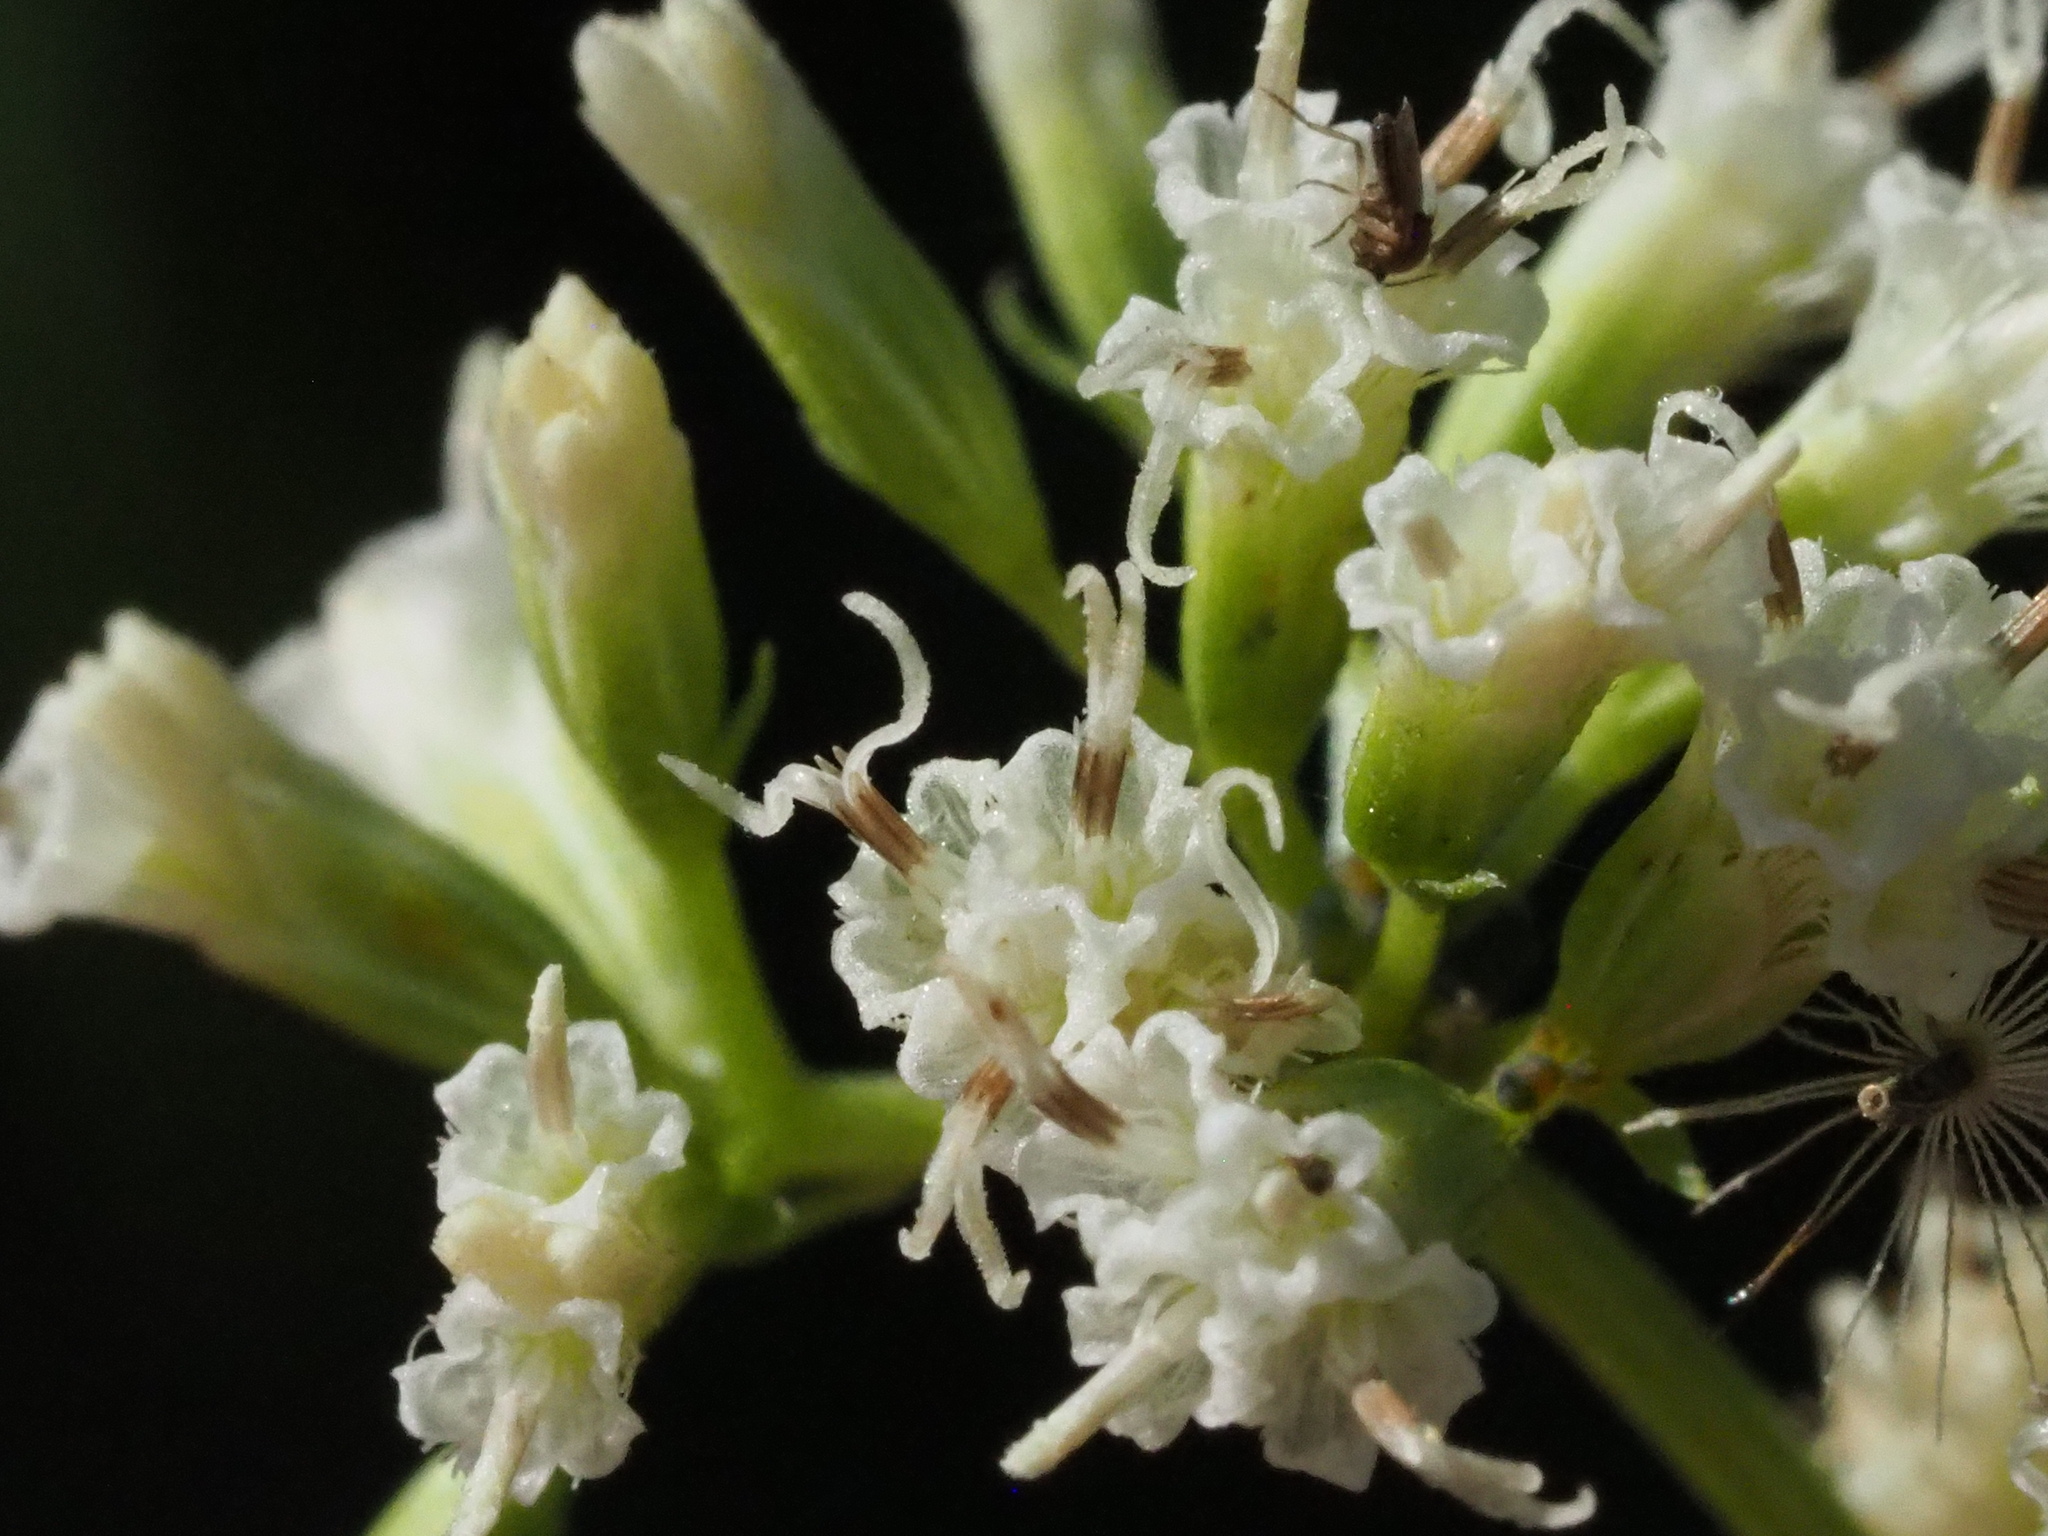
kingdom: Plantae
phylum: Tracheophyta
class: Magnoliopsida
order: Asterales
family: Asteraceae
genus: Mikania
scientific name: Mikania micrantha
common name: Mile-a-minute
